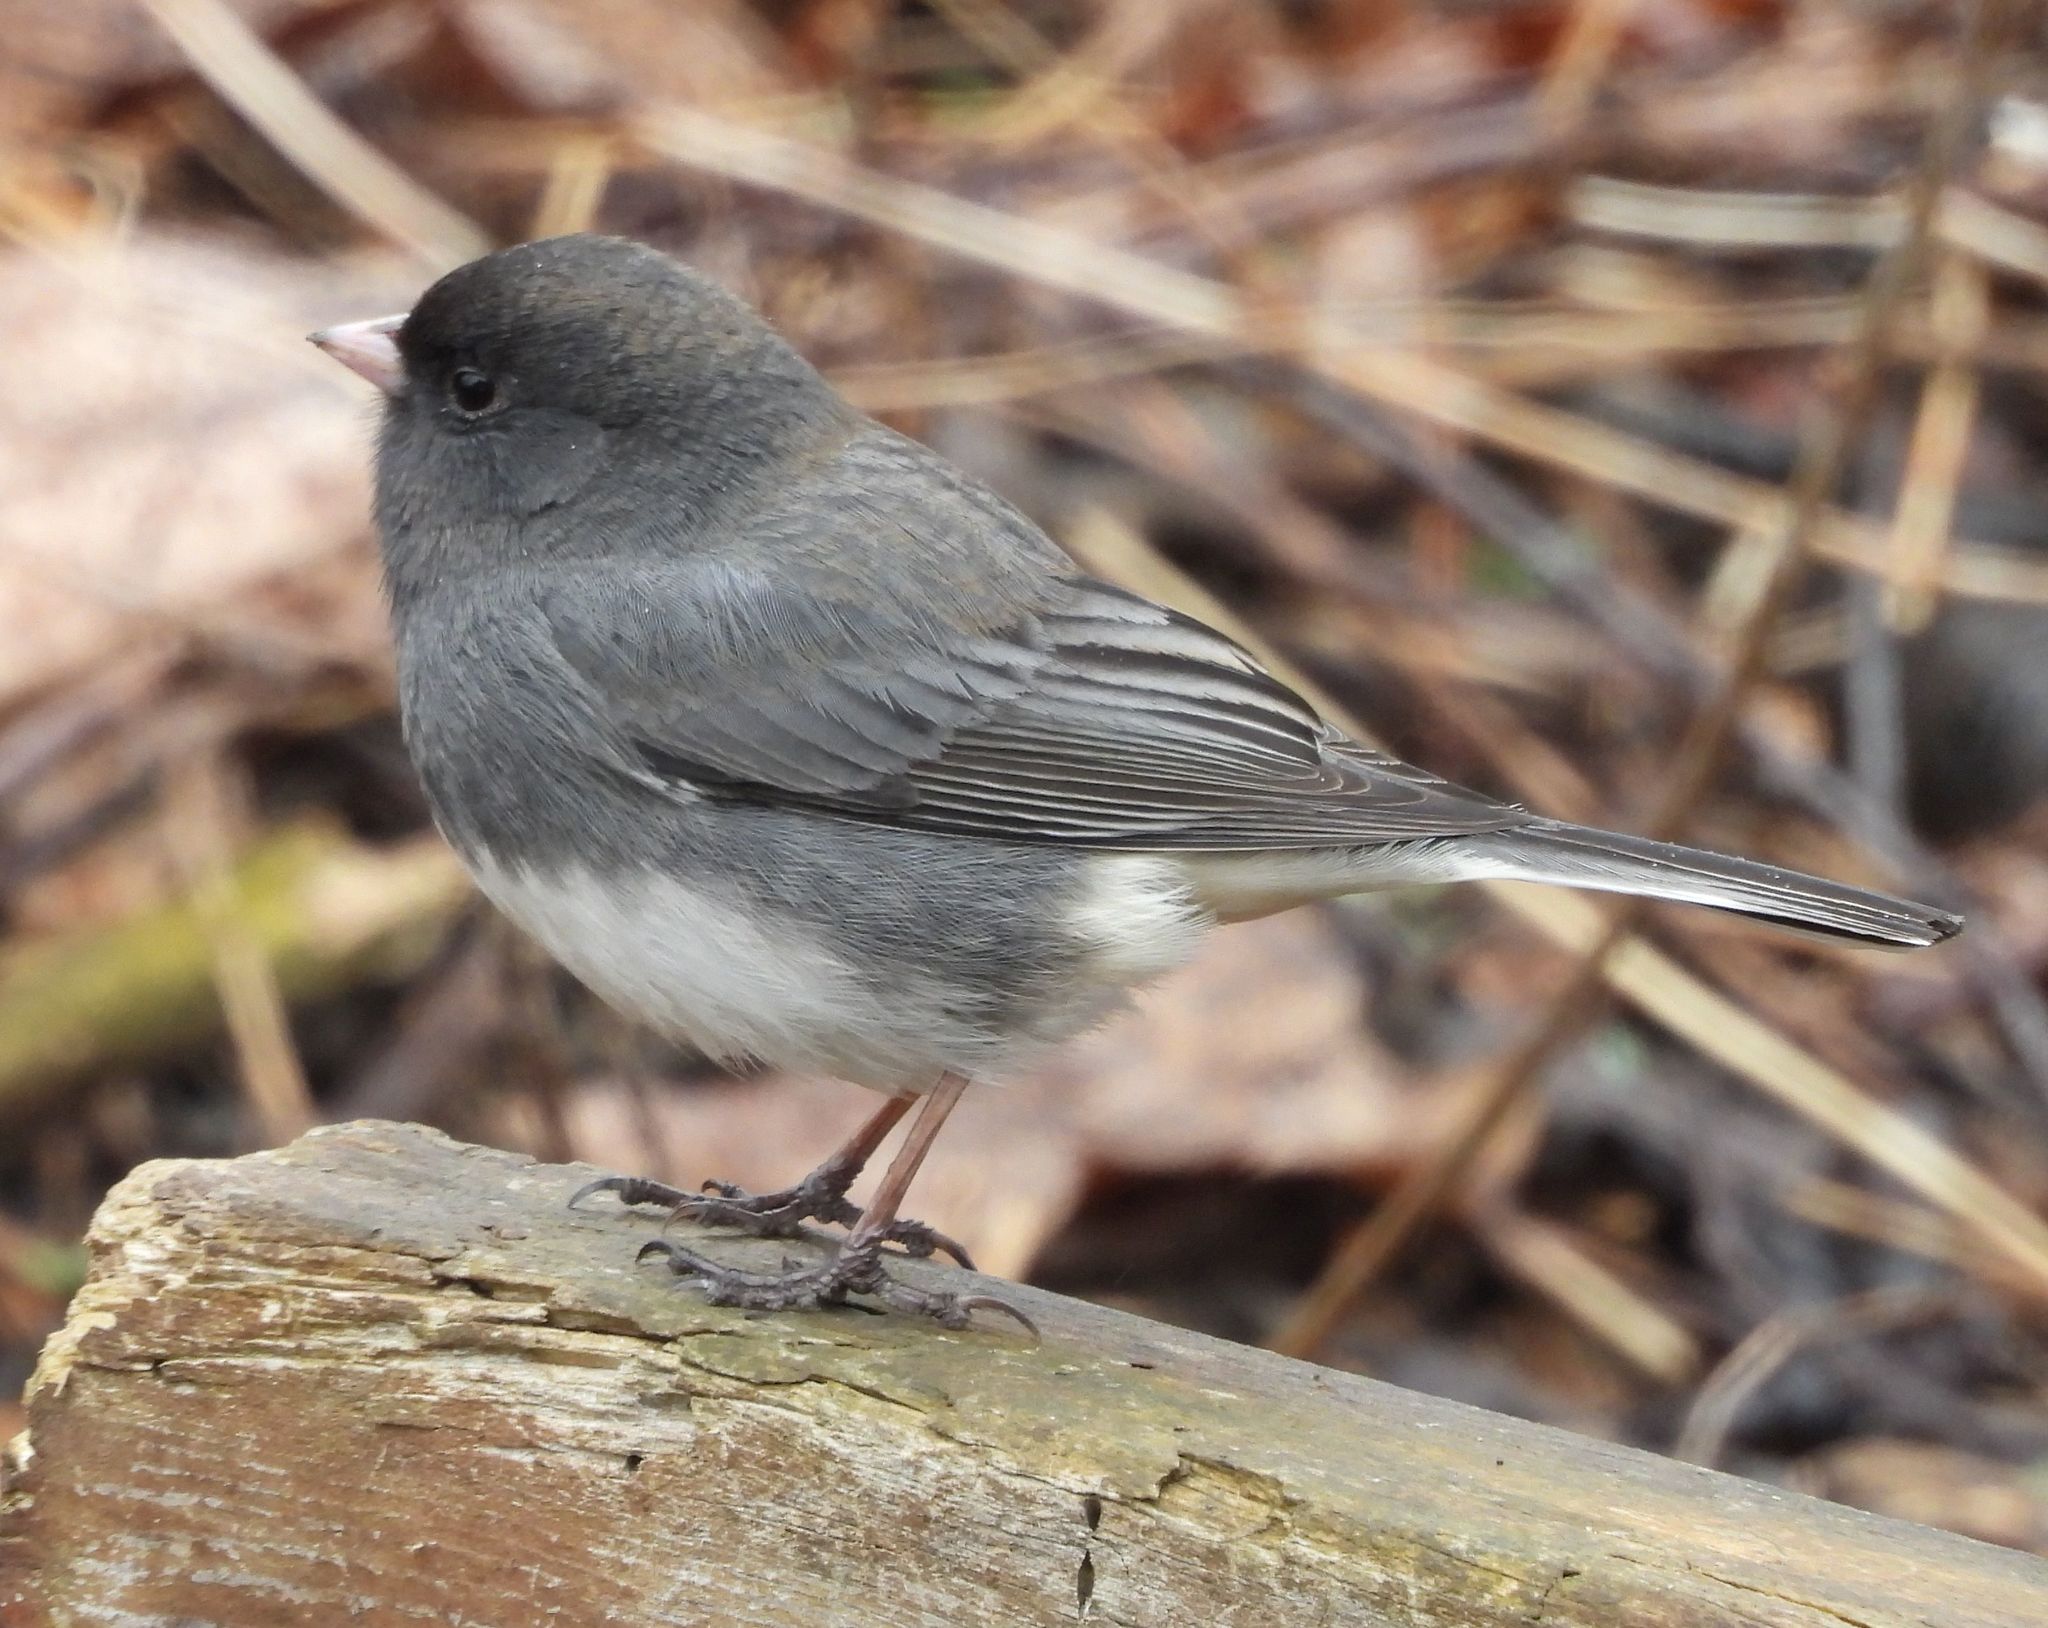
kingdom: Animalia
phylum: Chordata
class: Aves
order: Passeriformes
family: Passerellidae
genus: Junco
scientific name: Junco hyemalis
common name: Dark-eyed junco
